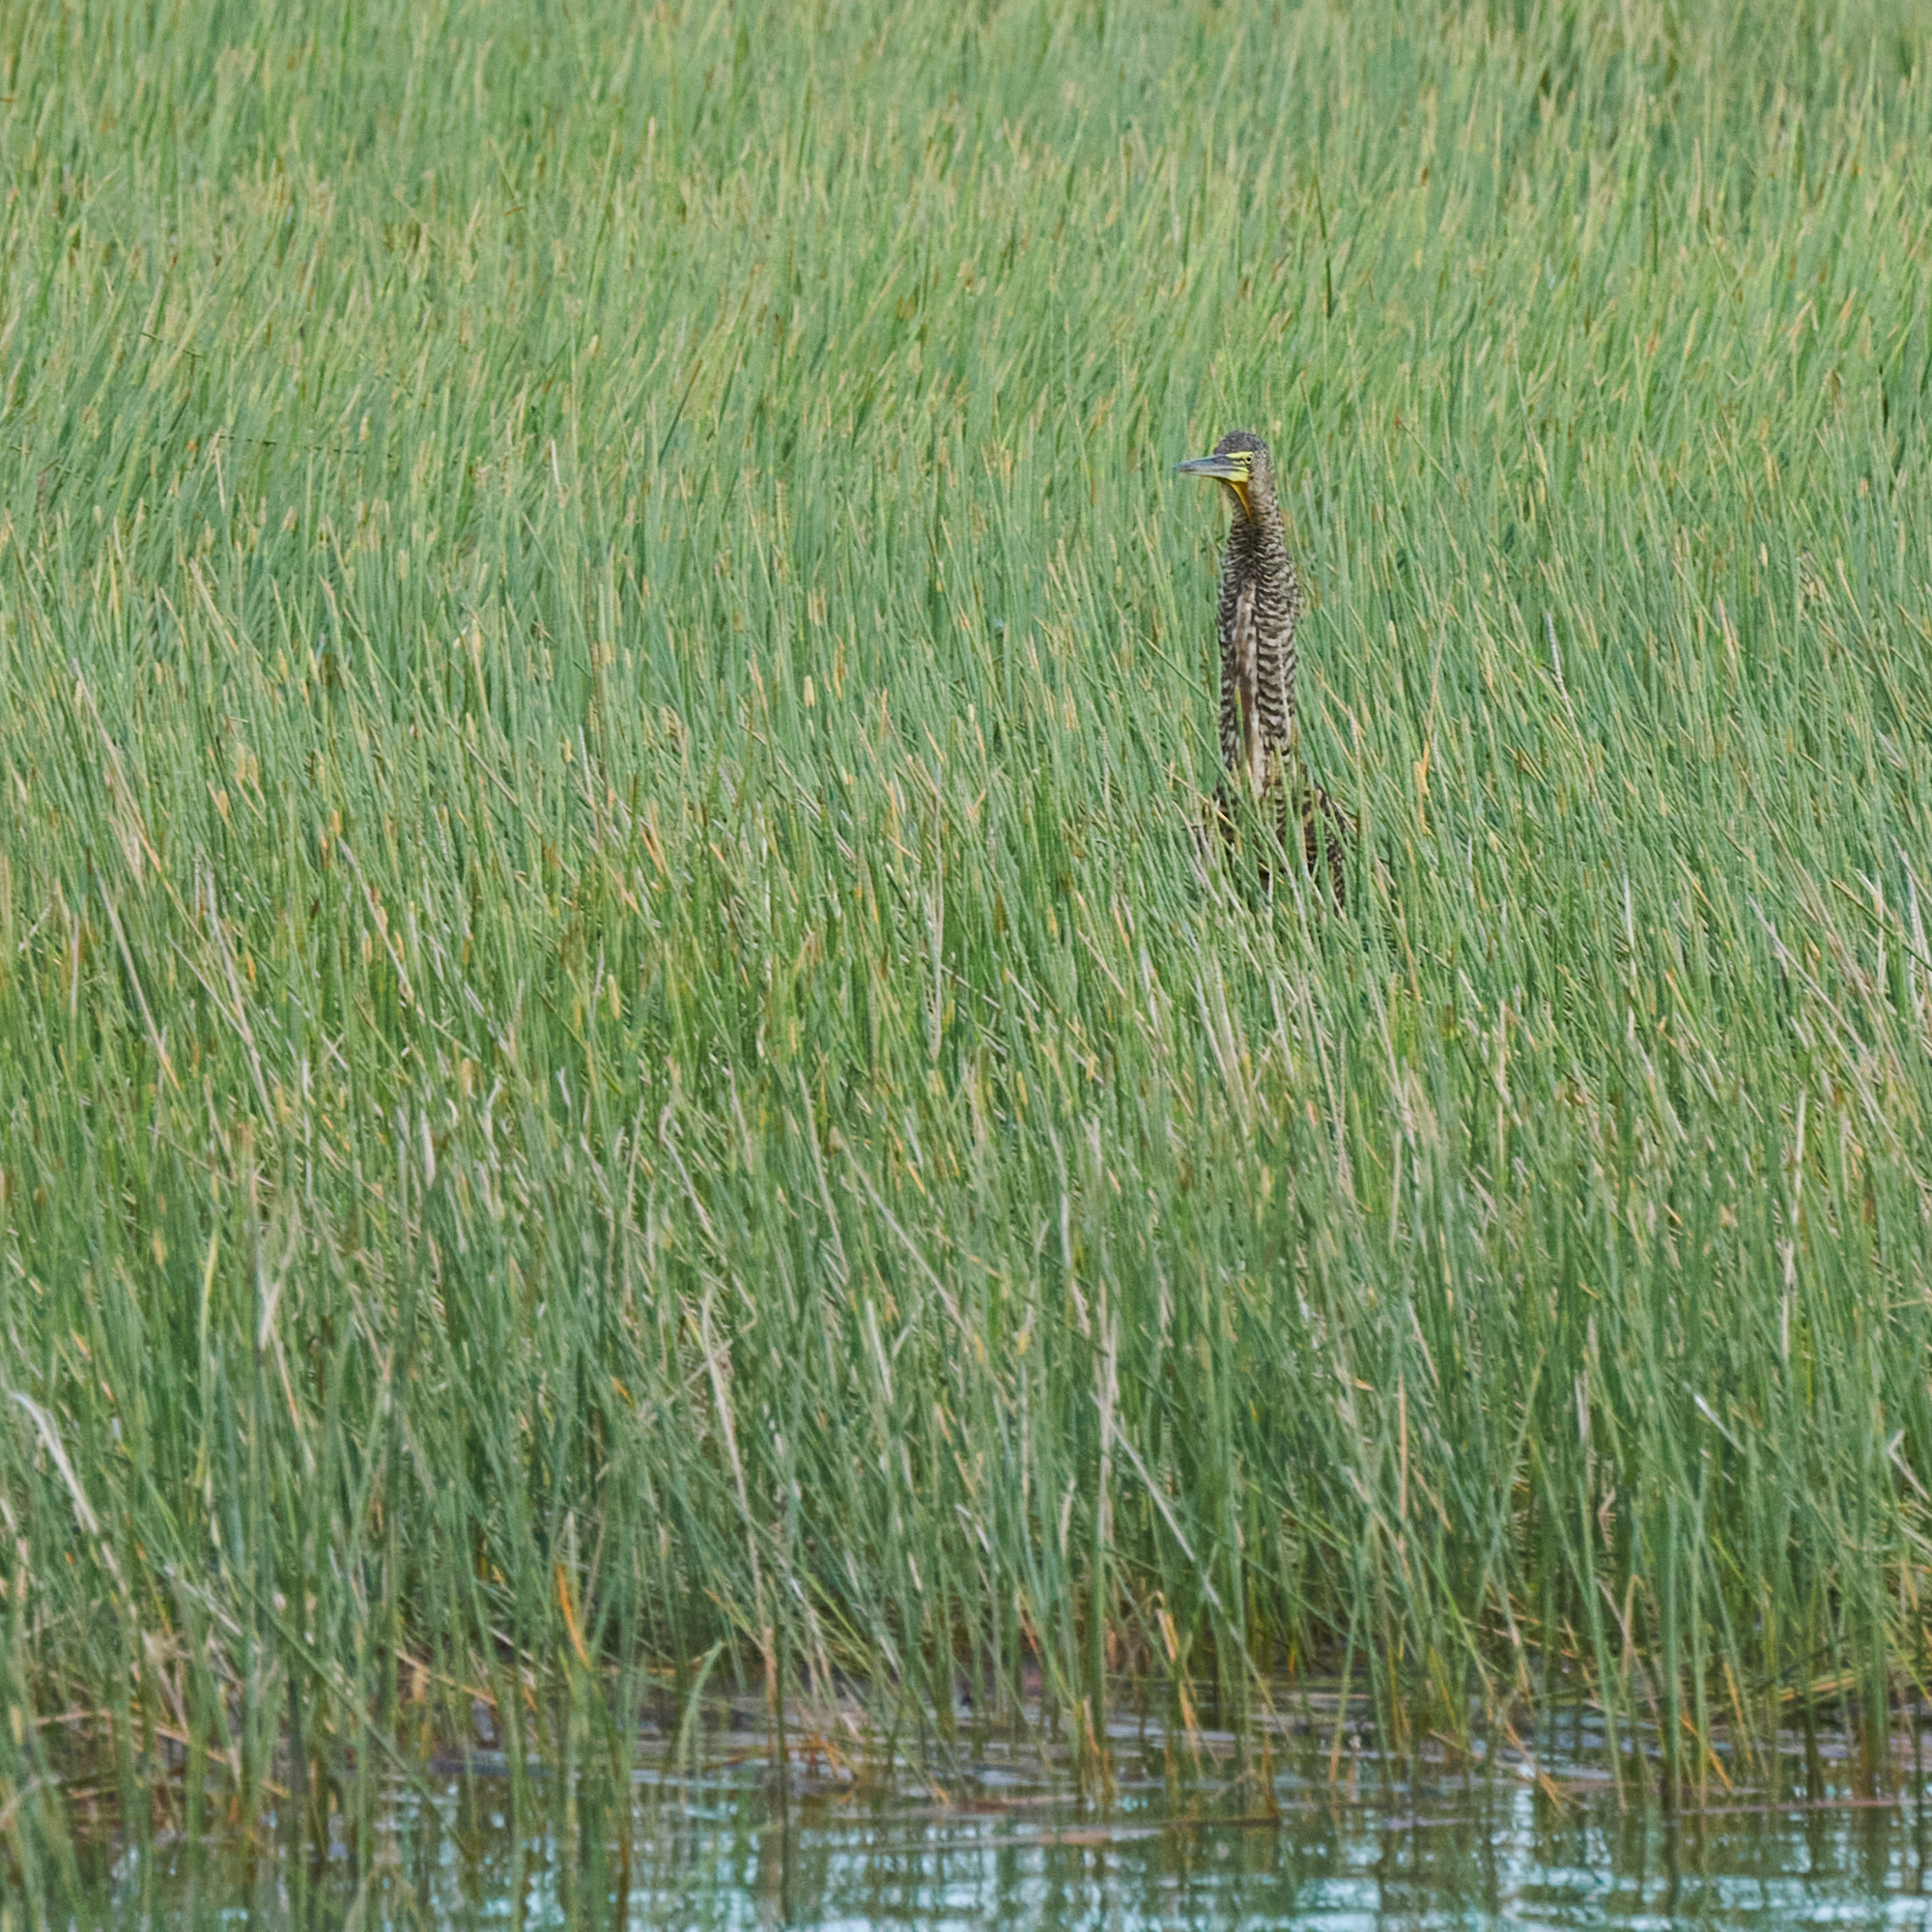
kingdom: Animalia
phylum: Chordata
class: Aves
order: Pelecaniformes
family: Ardeidae
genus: Tigrisoma
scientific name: Tigrisoma mexicanum
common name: Bare-throated tiger-heron
